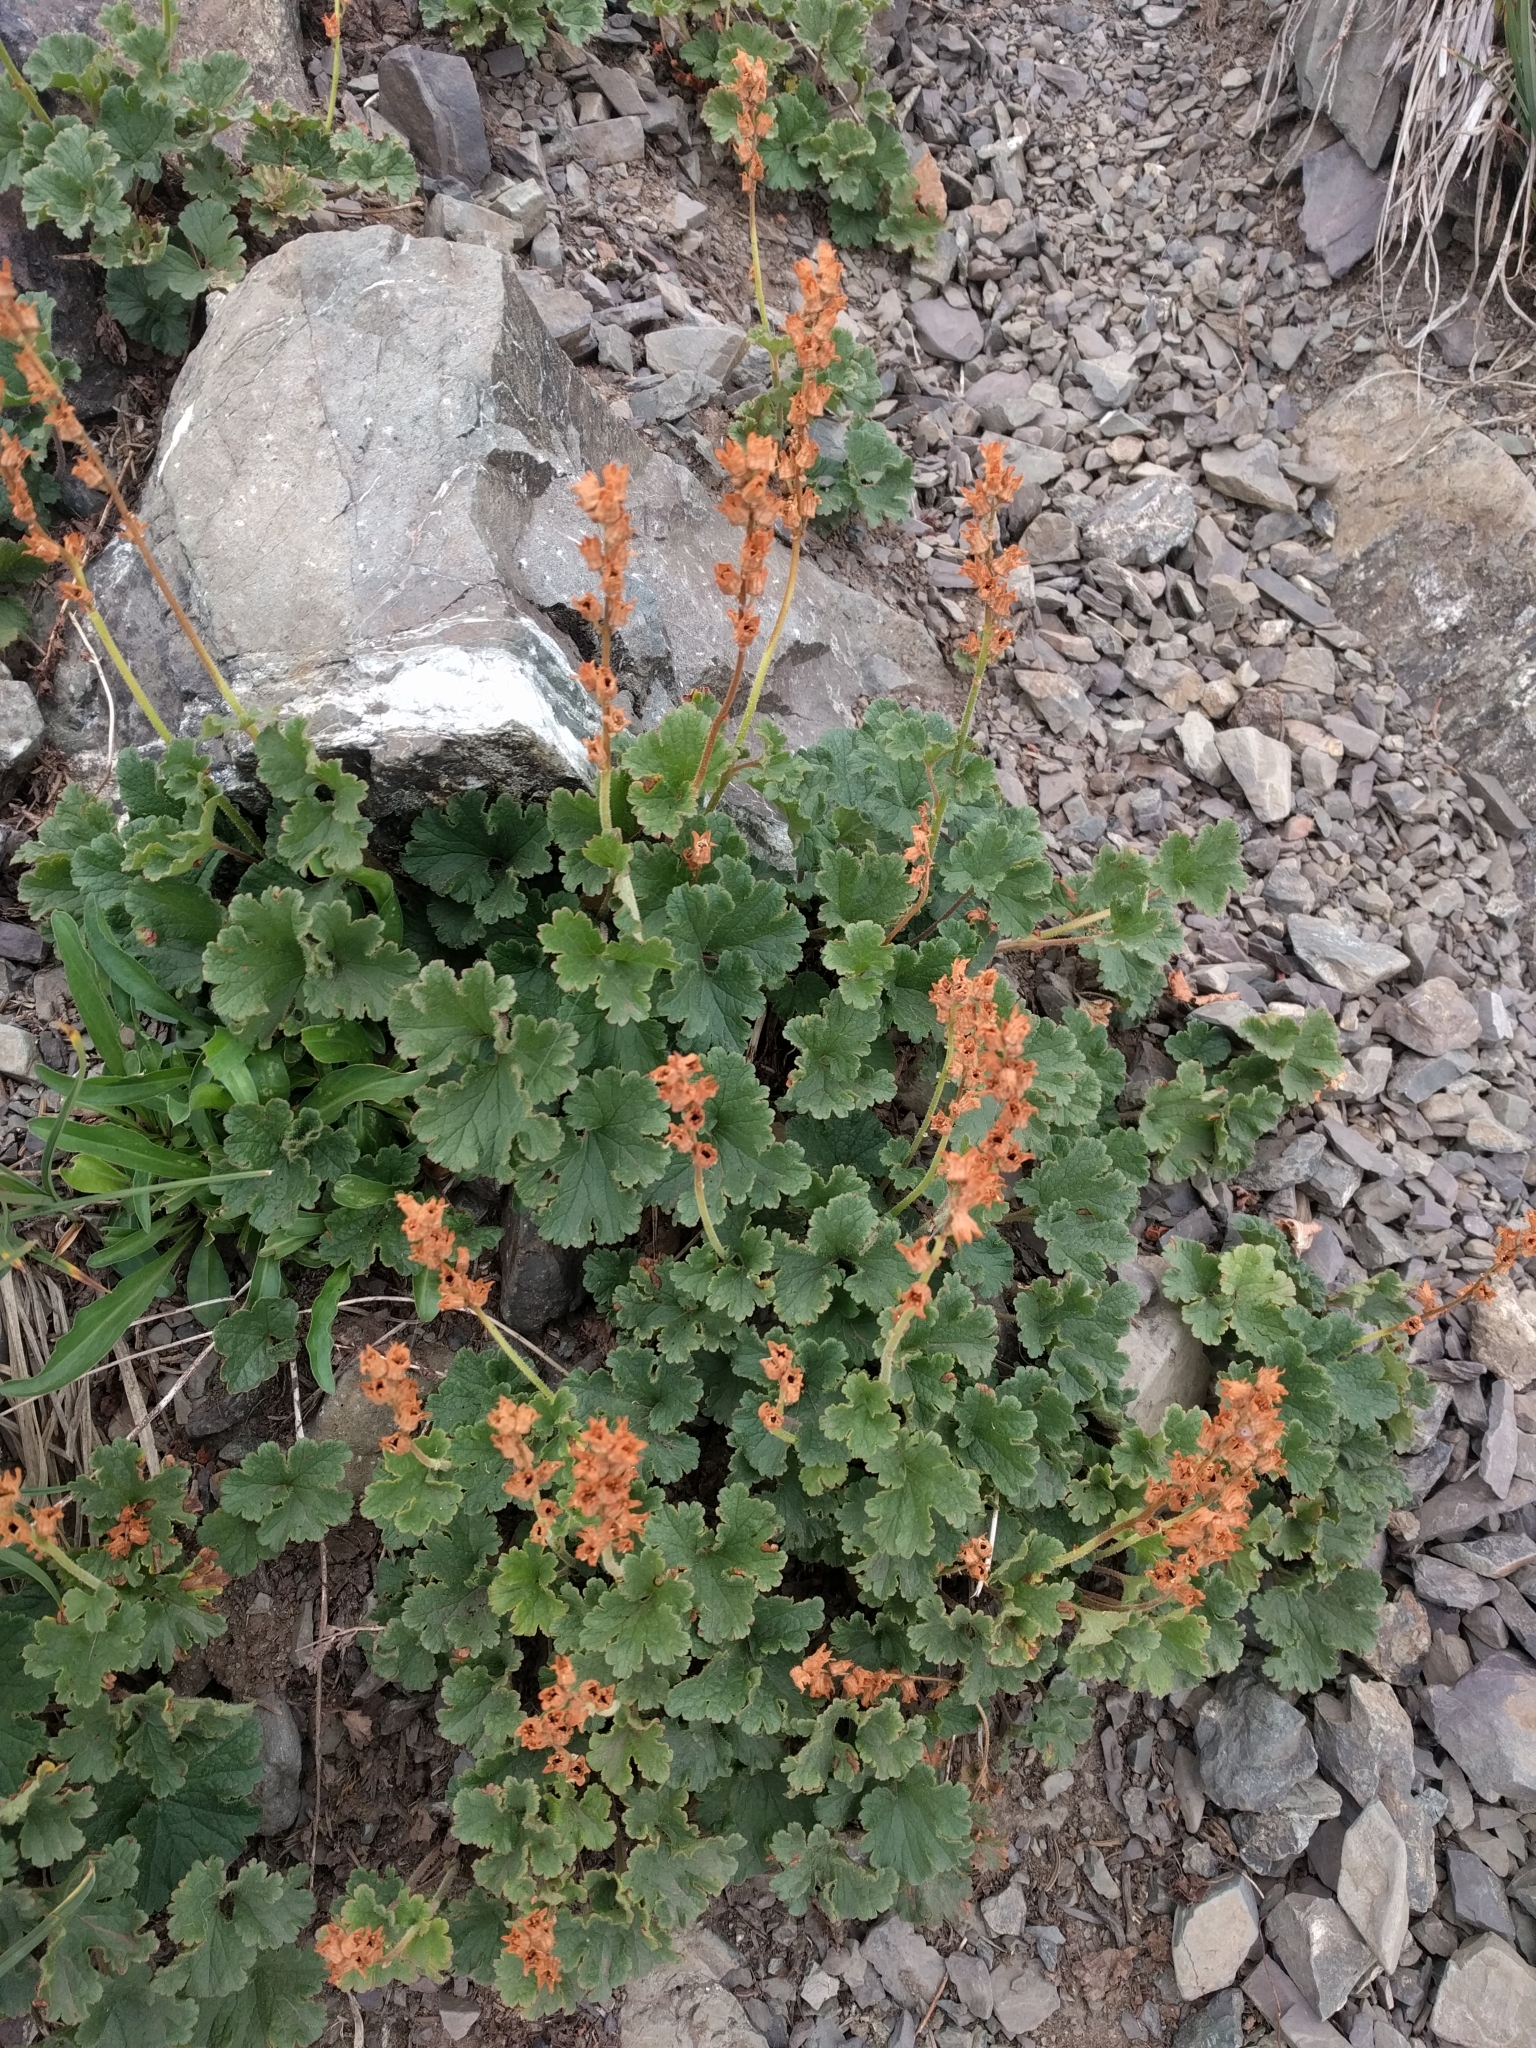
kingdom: Plantae
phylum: Tracheophyta
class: Magnoliopsida
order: Saxifragales
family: Saxifragaceae
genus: Elmera
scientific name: Elmera racemosa
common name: Elmera
